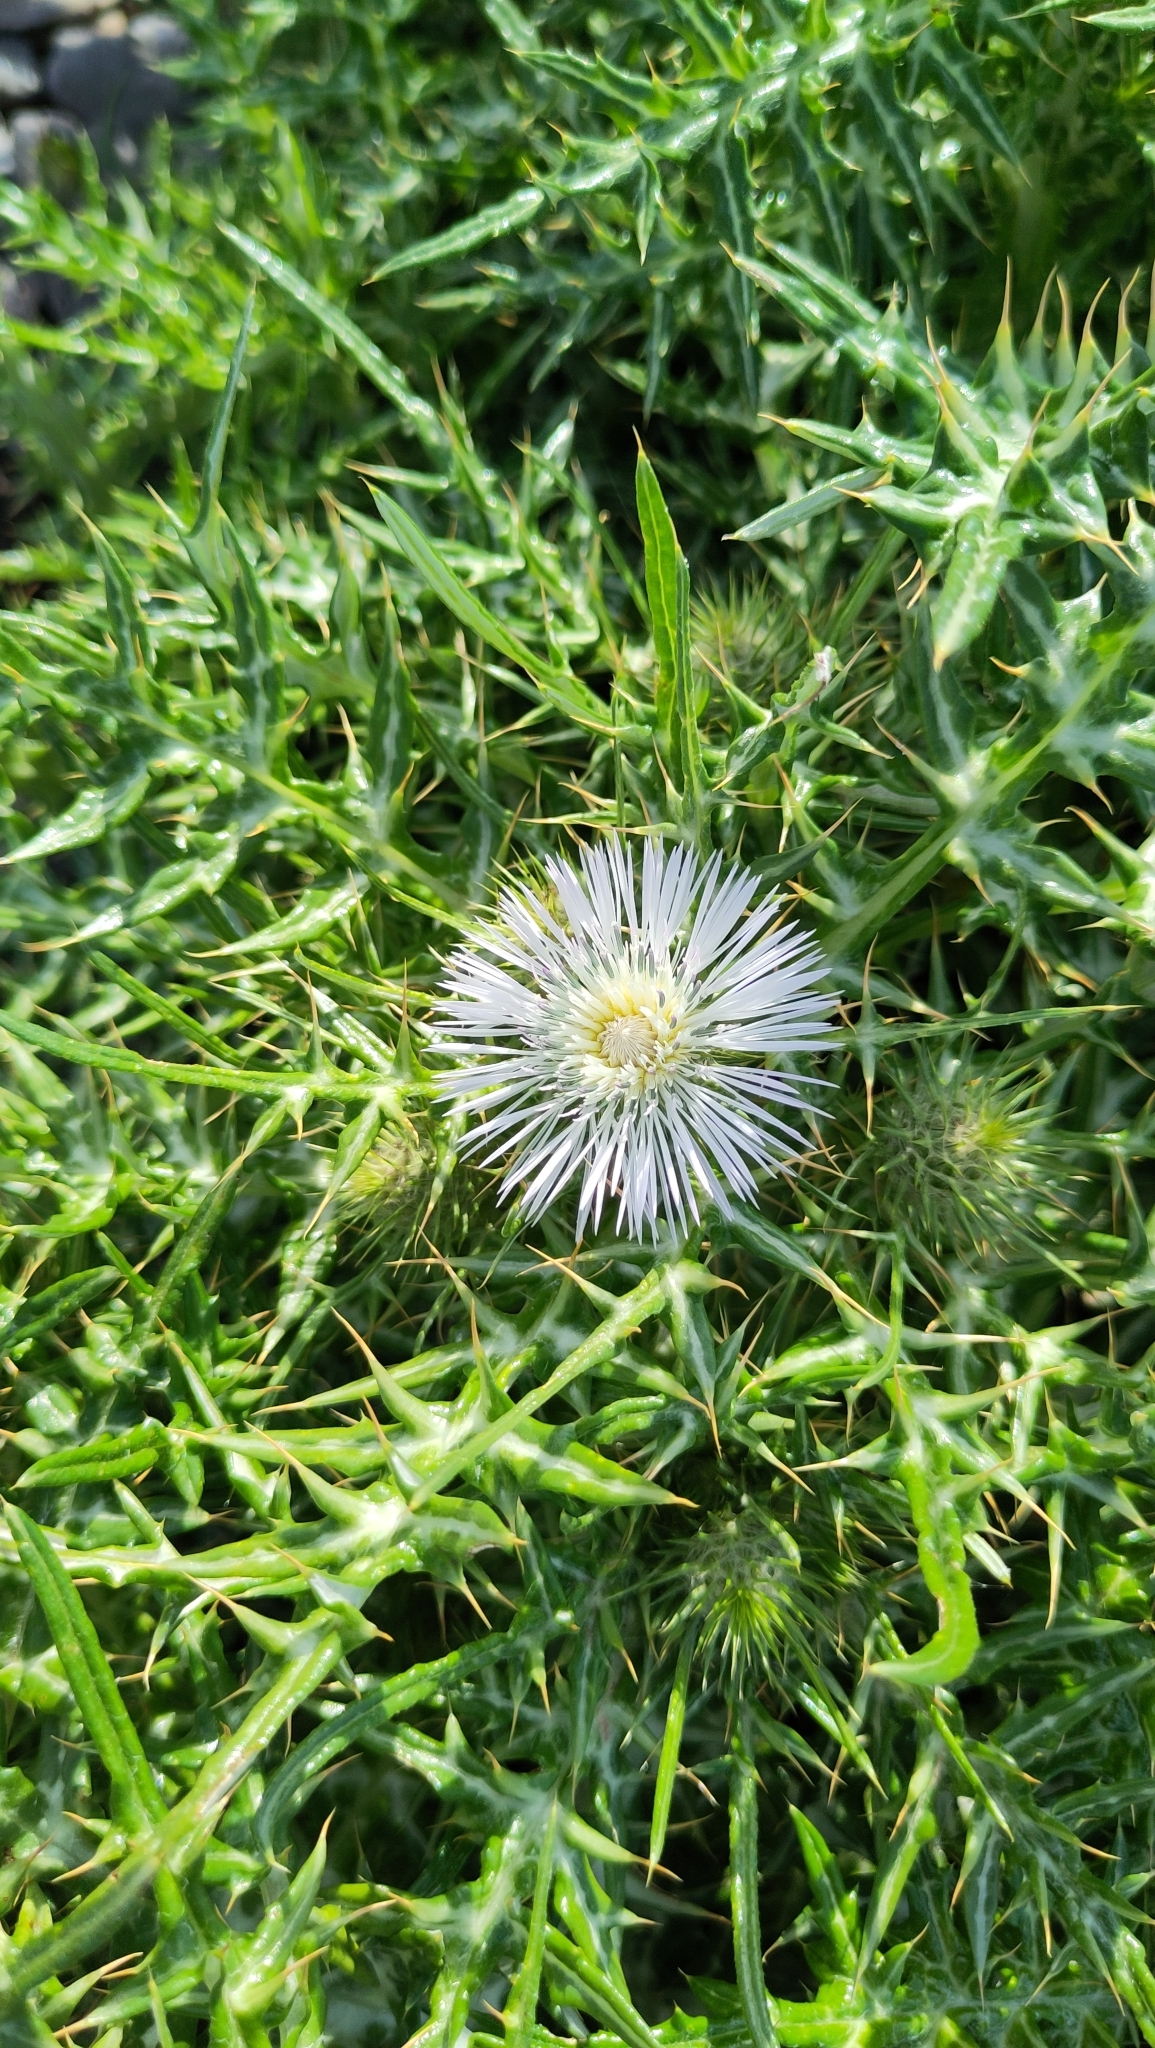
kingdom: Plantae
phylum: Tracheophyta
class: Magnoliopsida
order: Asterales
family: Asteraceae
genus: Galactites
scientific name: Galactites tomentosa
